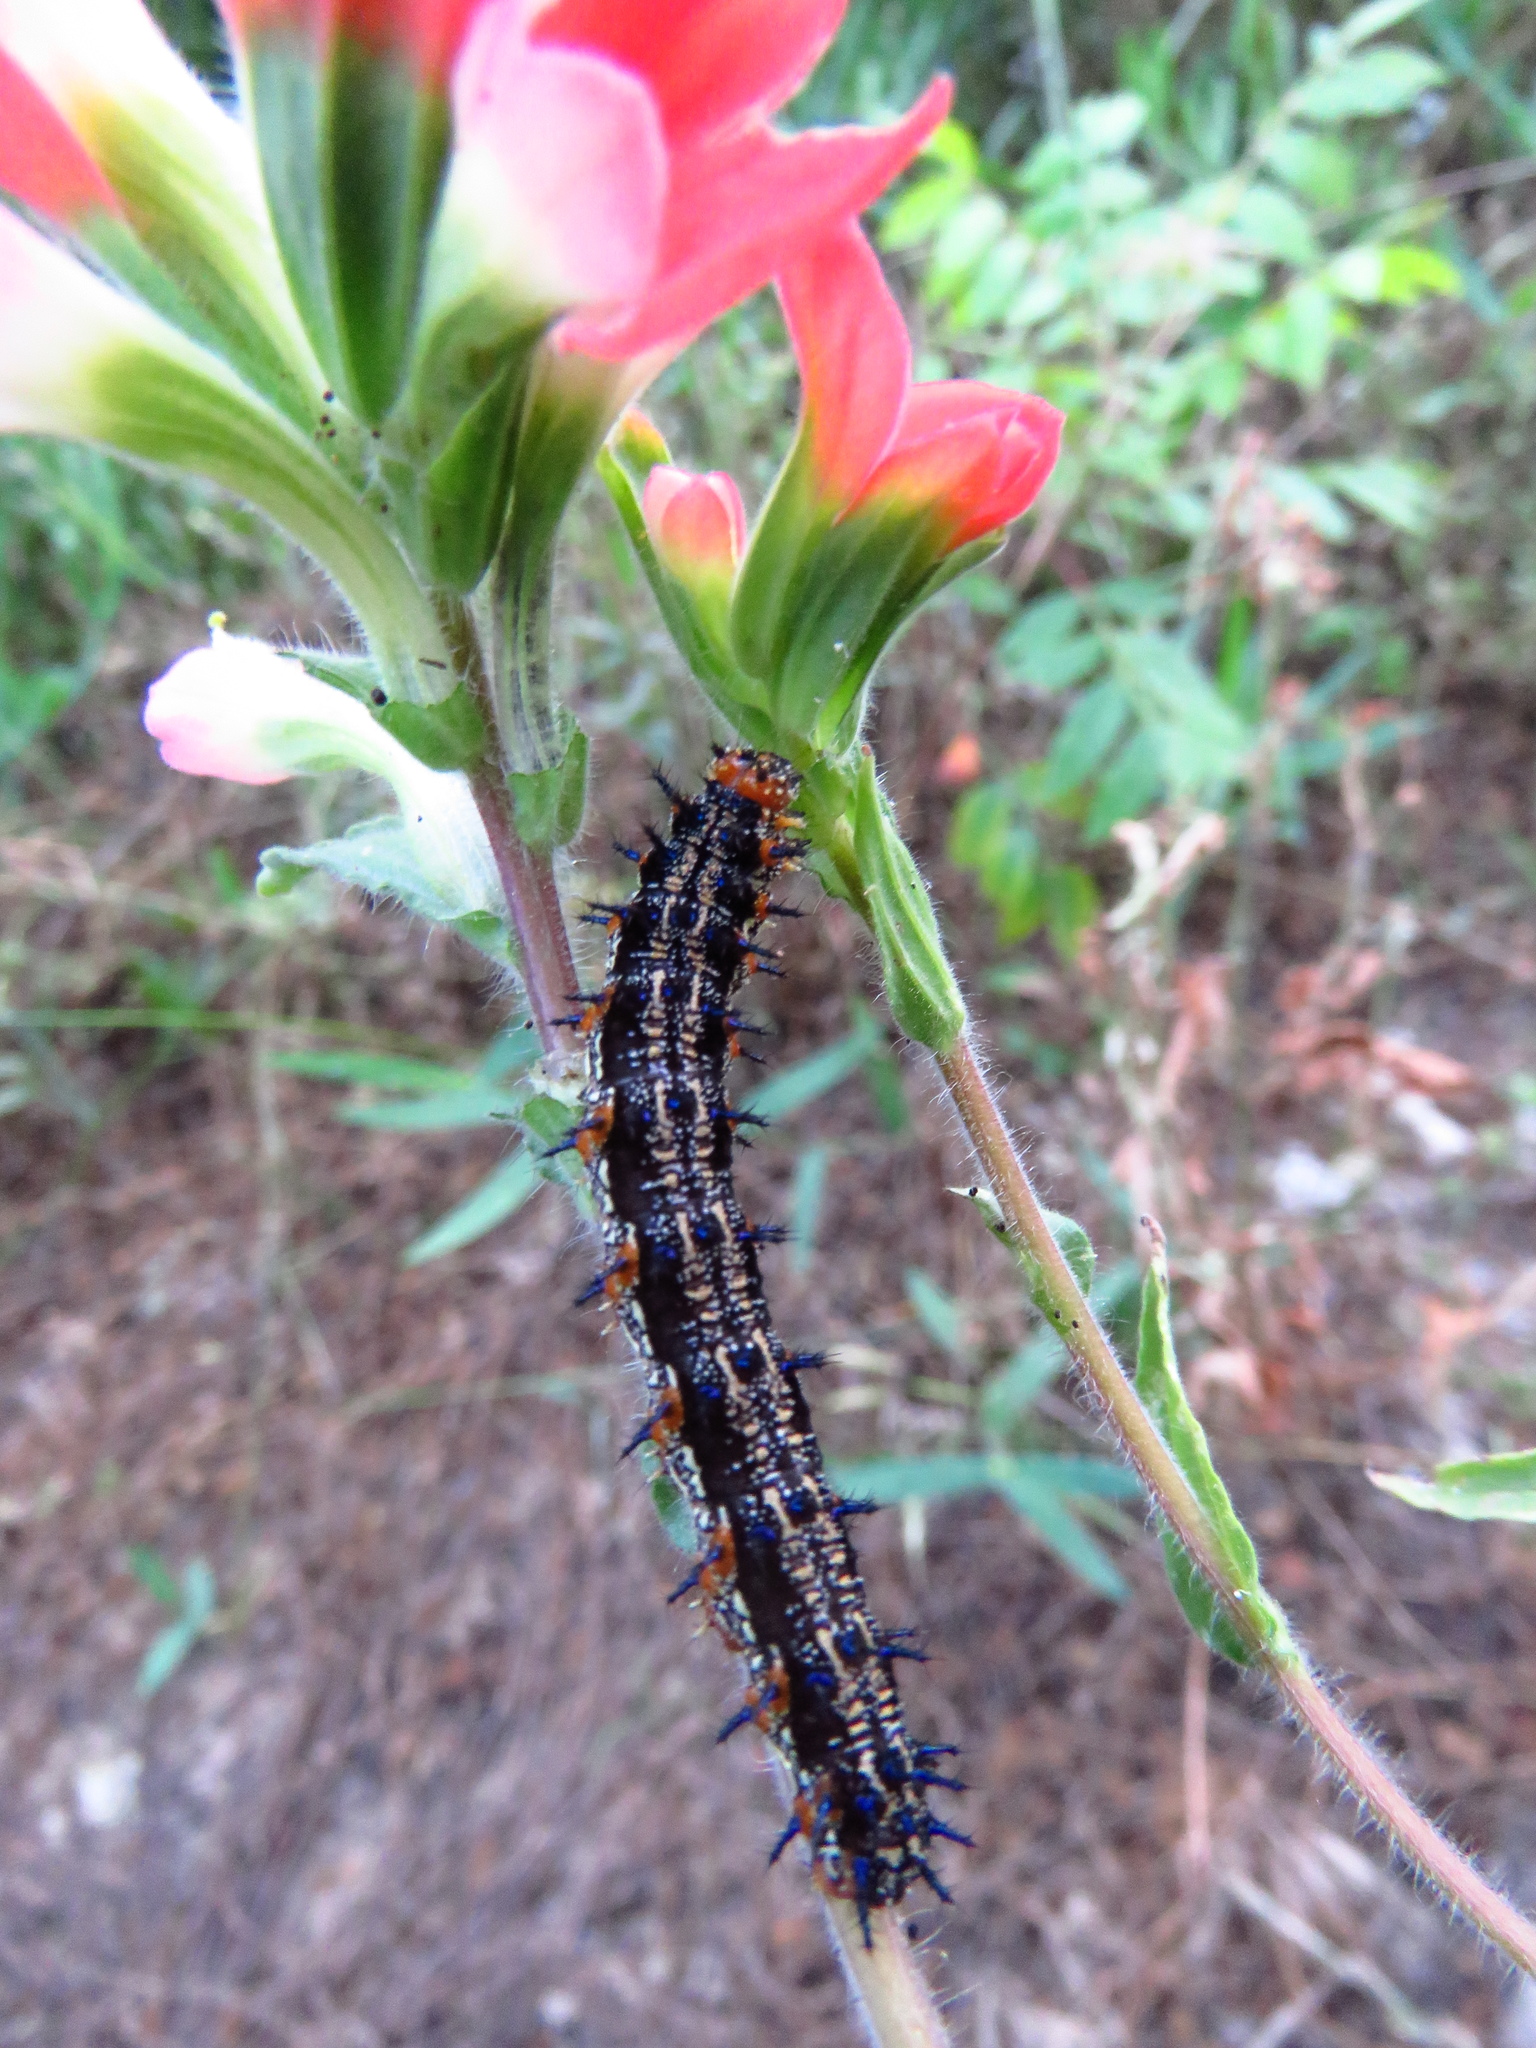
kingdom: Animalia
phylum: Arthropoda
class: Insecta
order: Lepidoptera
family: Nymphalidae
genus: Junonia
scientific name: Junonia coenia
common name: Common buckeye
